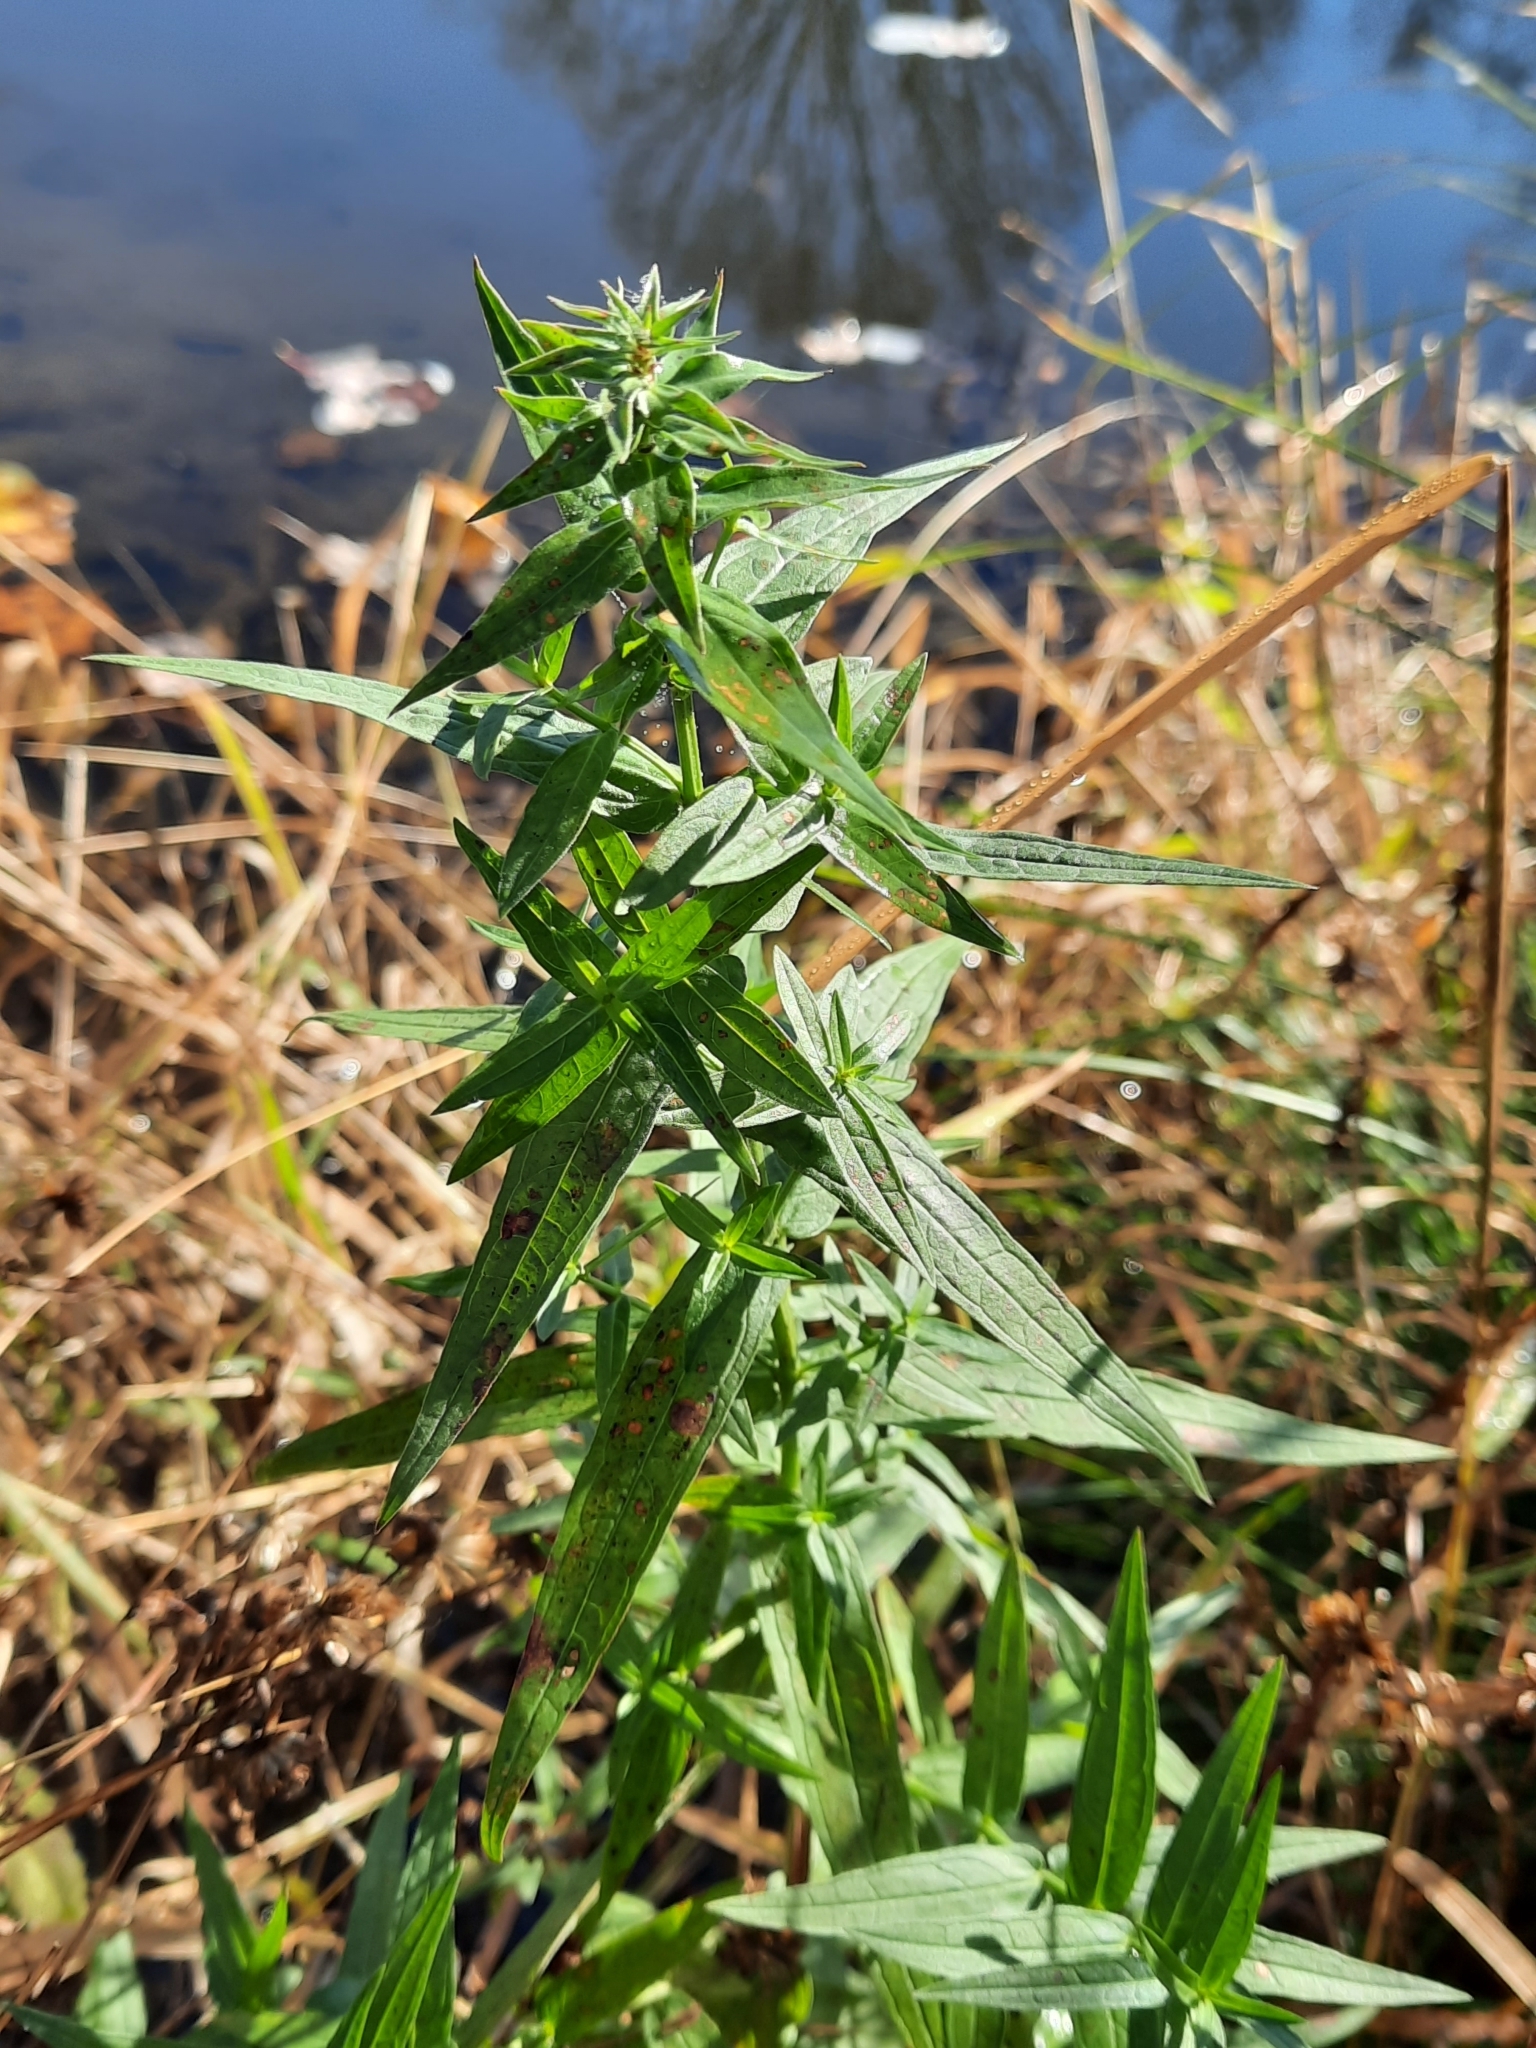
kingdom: Plantae
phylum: Tracheophyta
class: Magnoliopsida
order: Myrtales
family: Lythraceae
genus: Lythrum
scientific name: Lythrum salicaria
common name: Purple loosestrife
